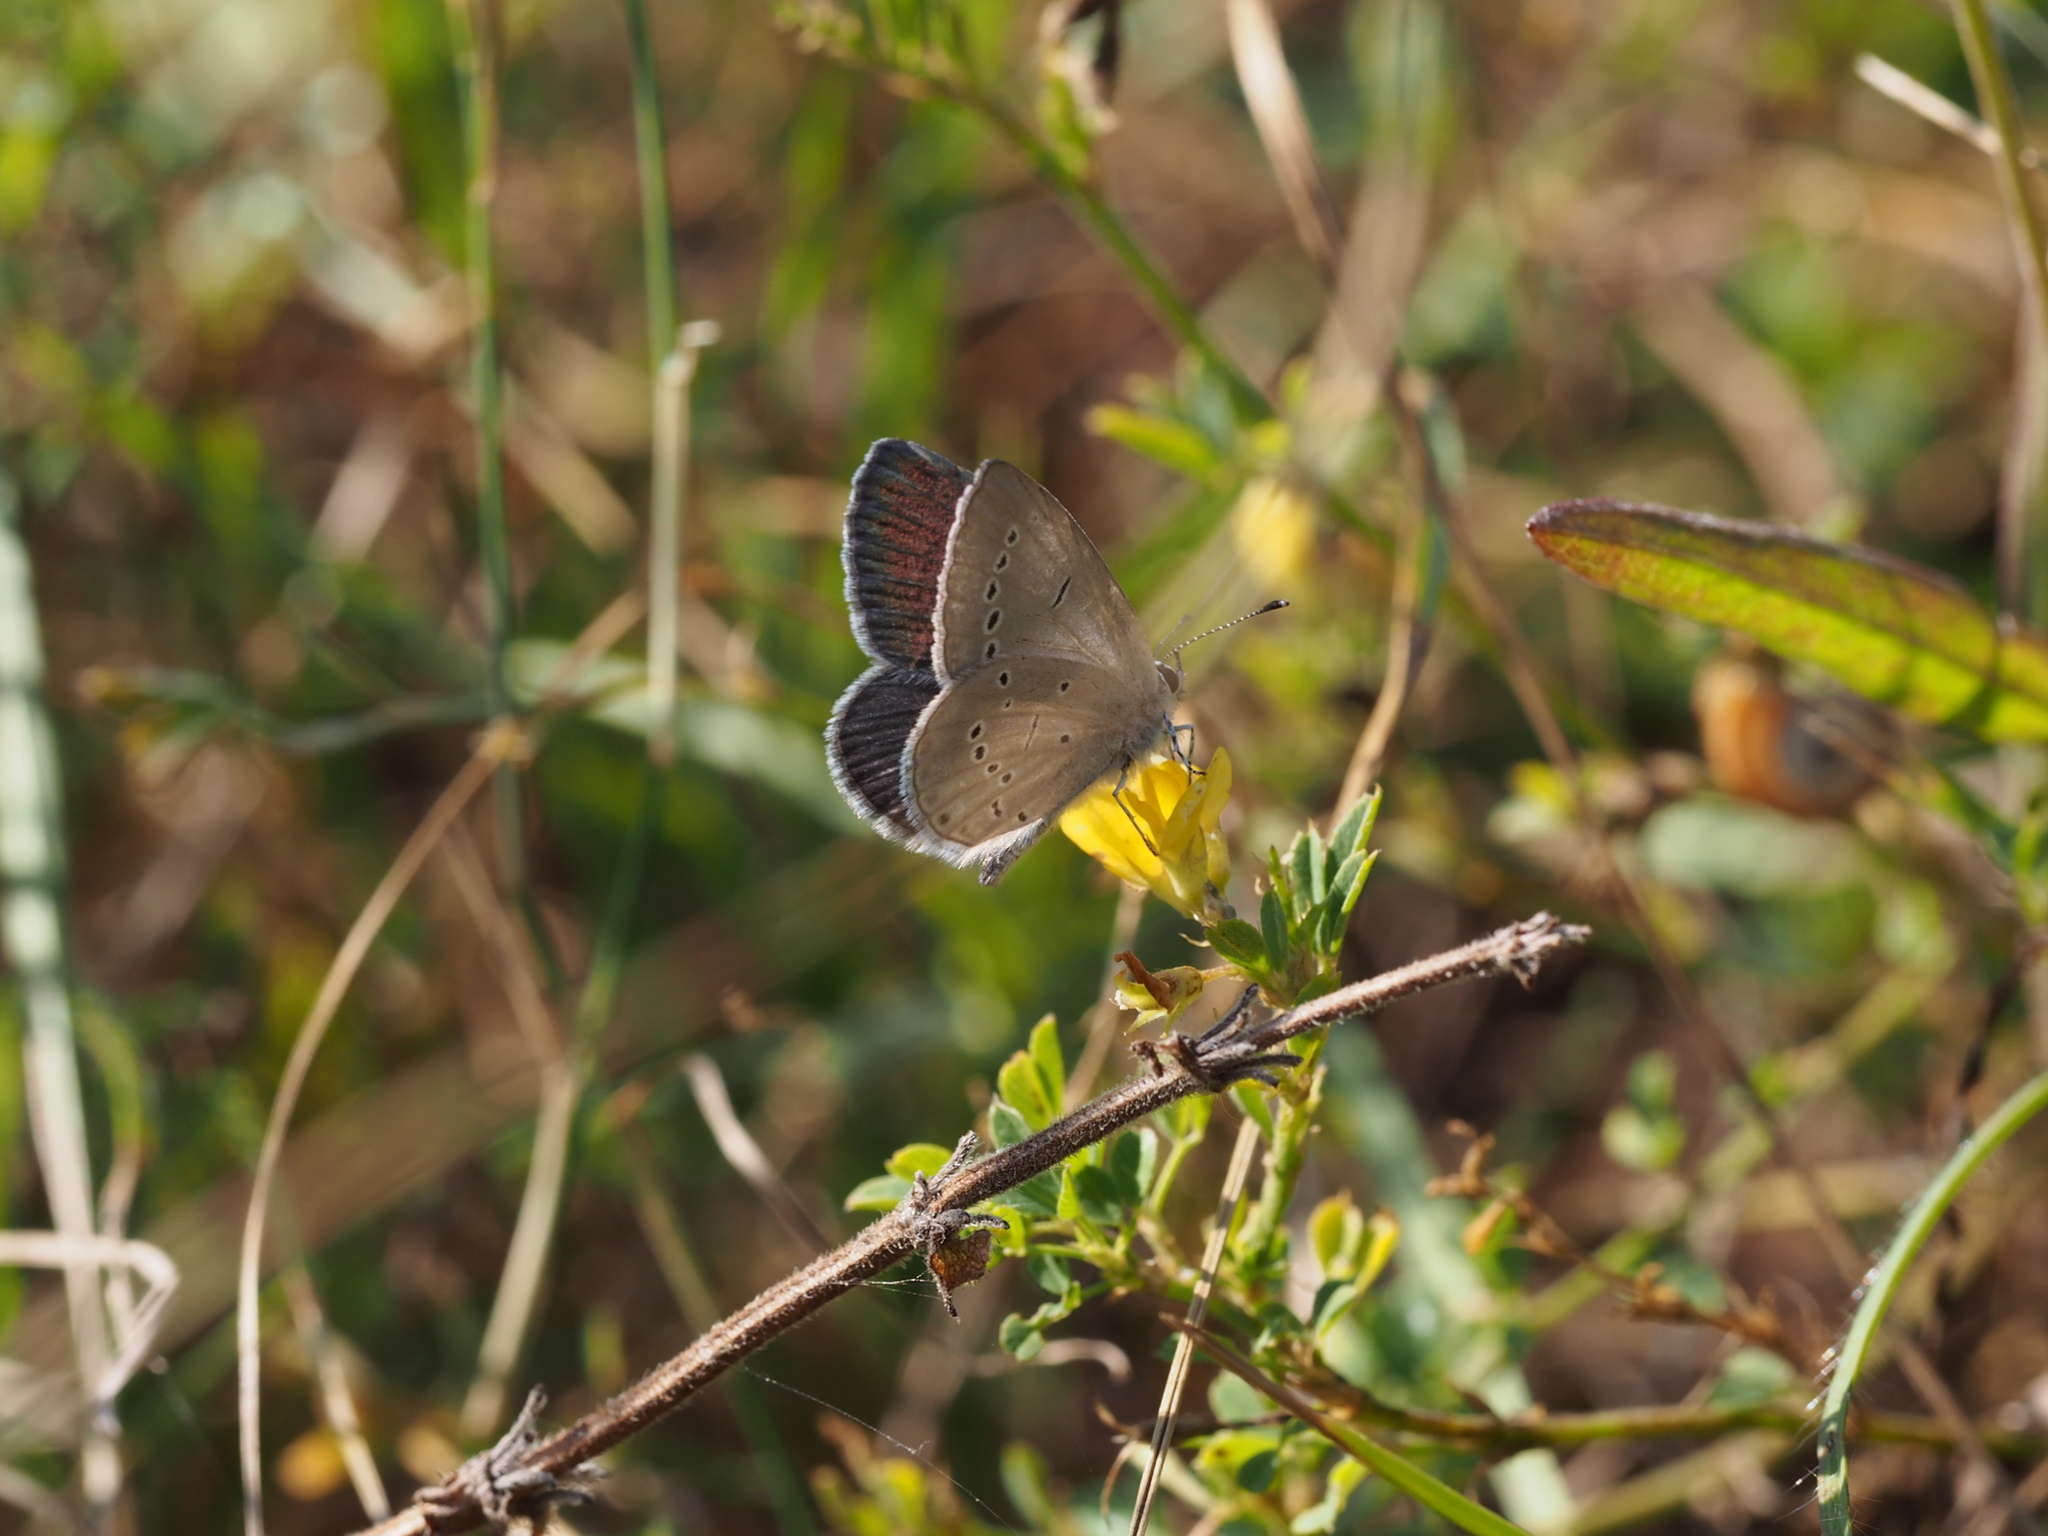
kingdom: Animalia
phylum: Arthropoda
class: Insecta
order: Lepidoptera
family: Lycaenidae
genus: Cupido
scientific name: Cupido minimus
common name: Small blue
